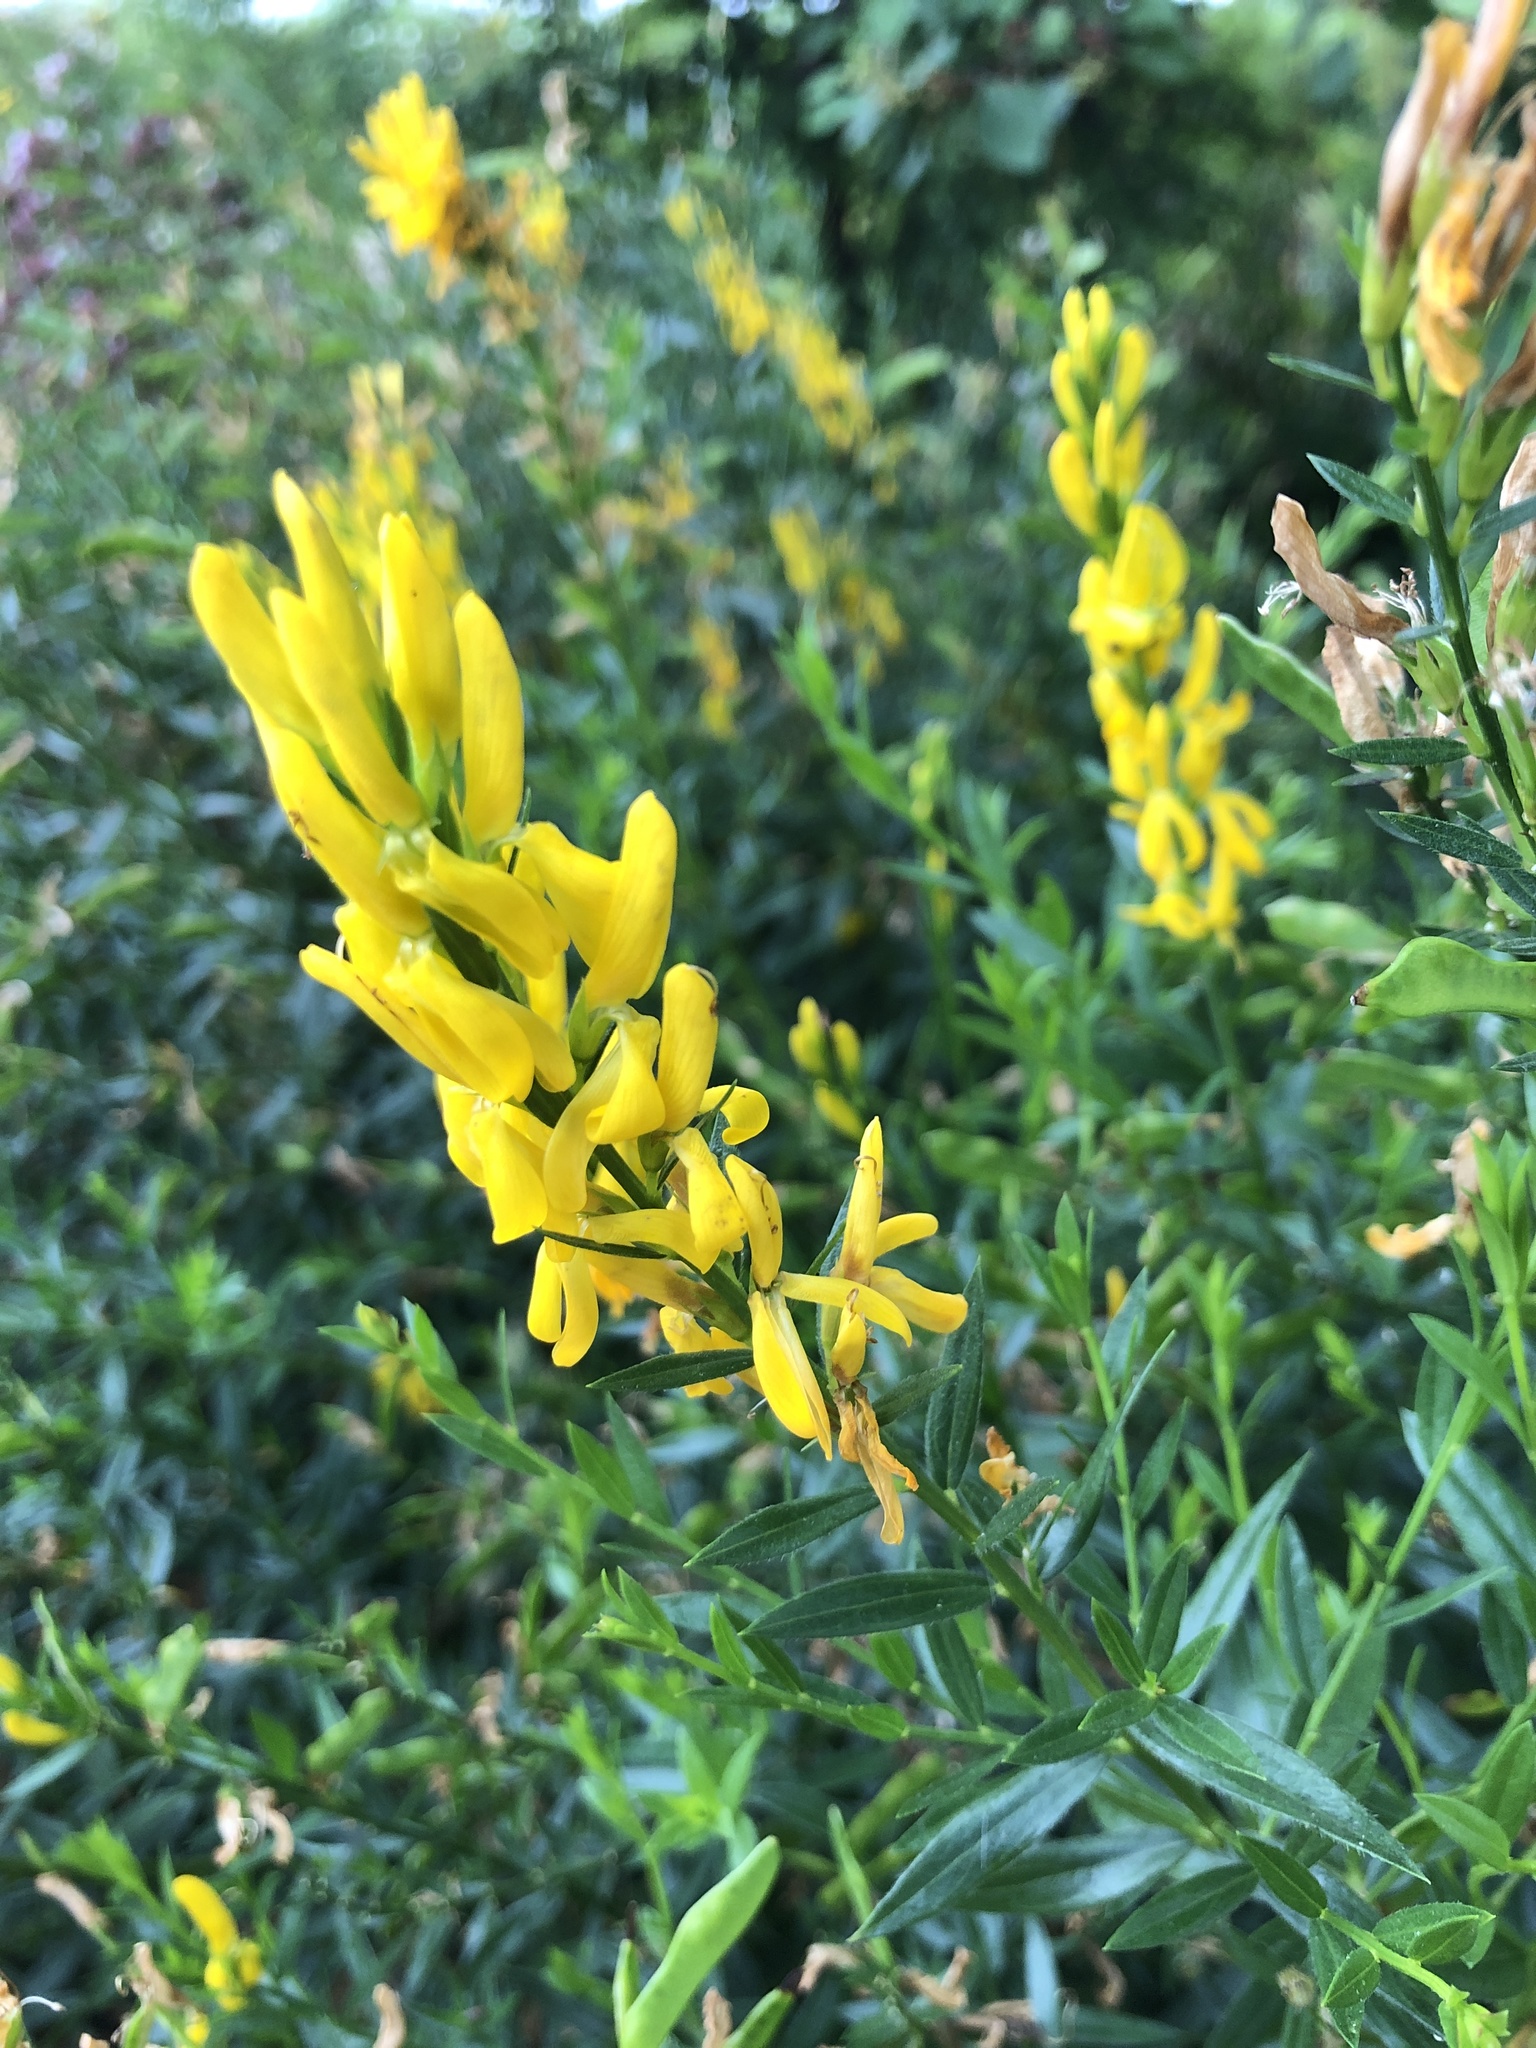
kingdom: Plantae
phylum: Tracheophyta
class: Magnoliopsida
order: Fabales
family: Fabaceae
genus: Genista
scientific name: Genista tinctoria
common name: Dyer's greenweed
